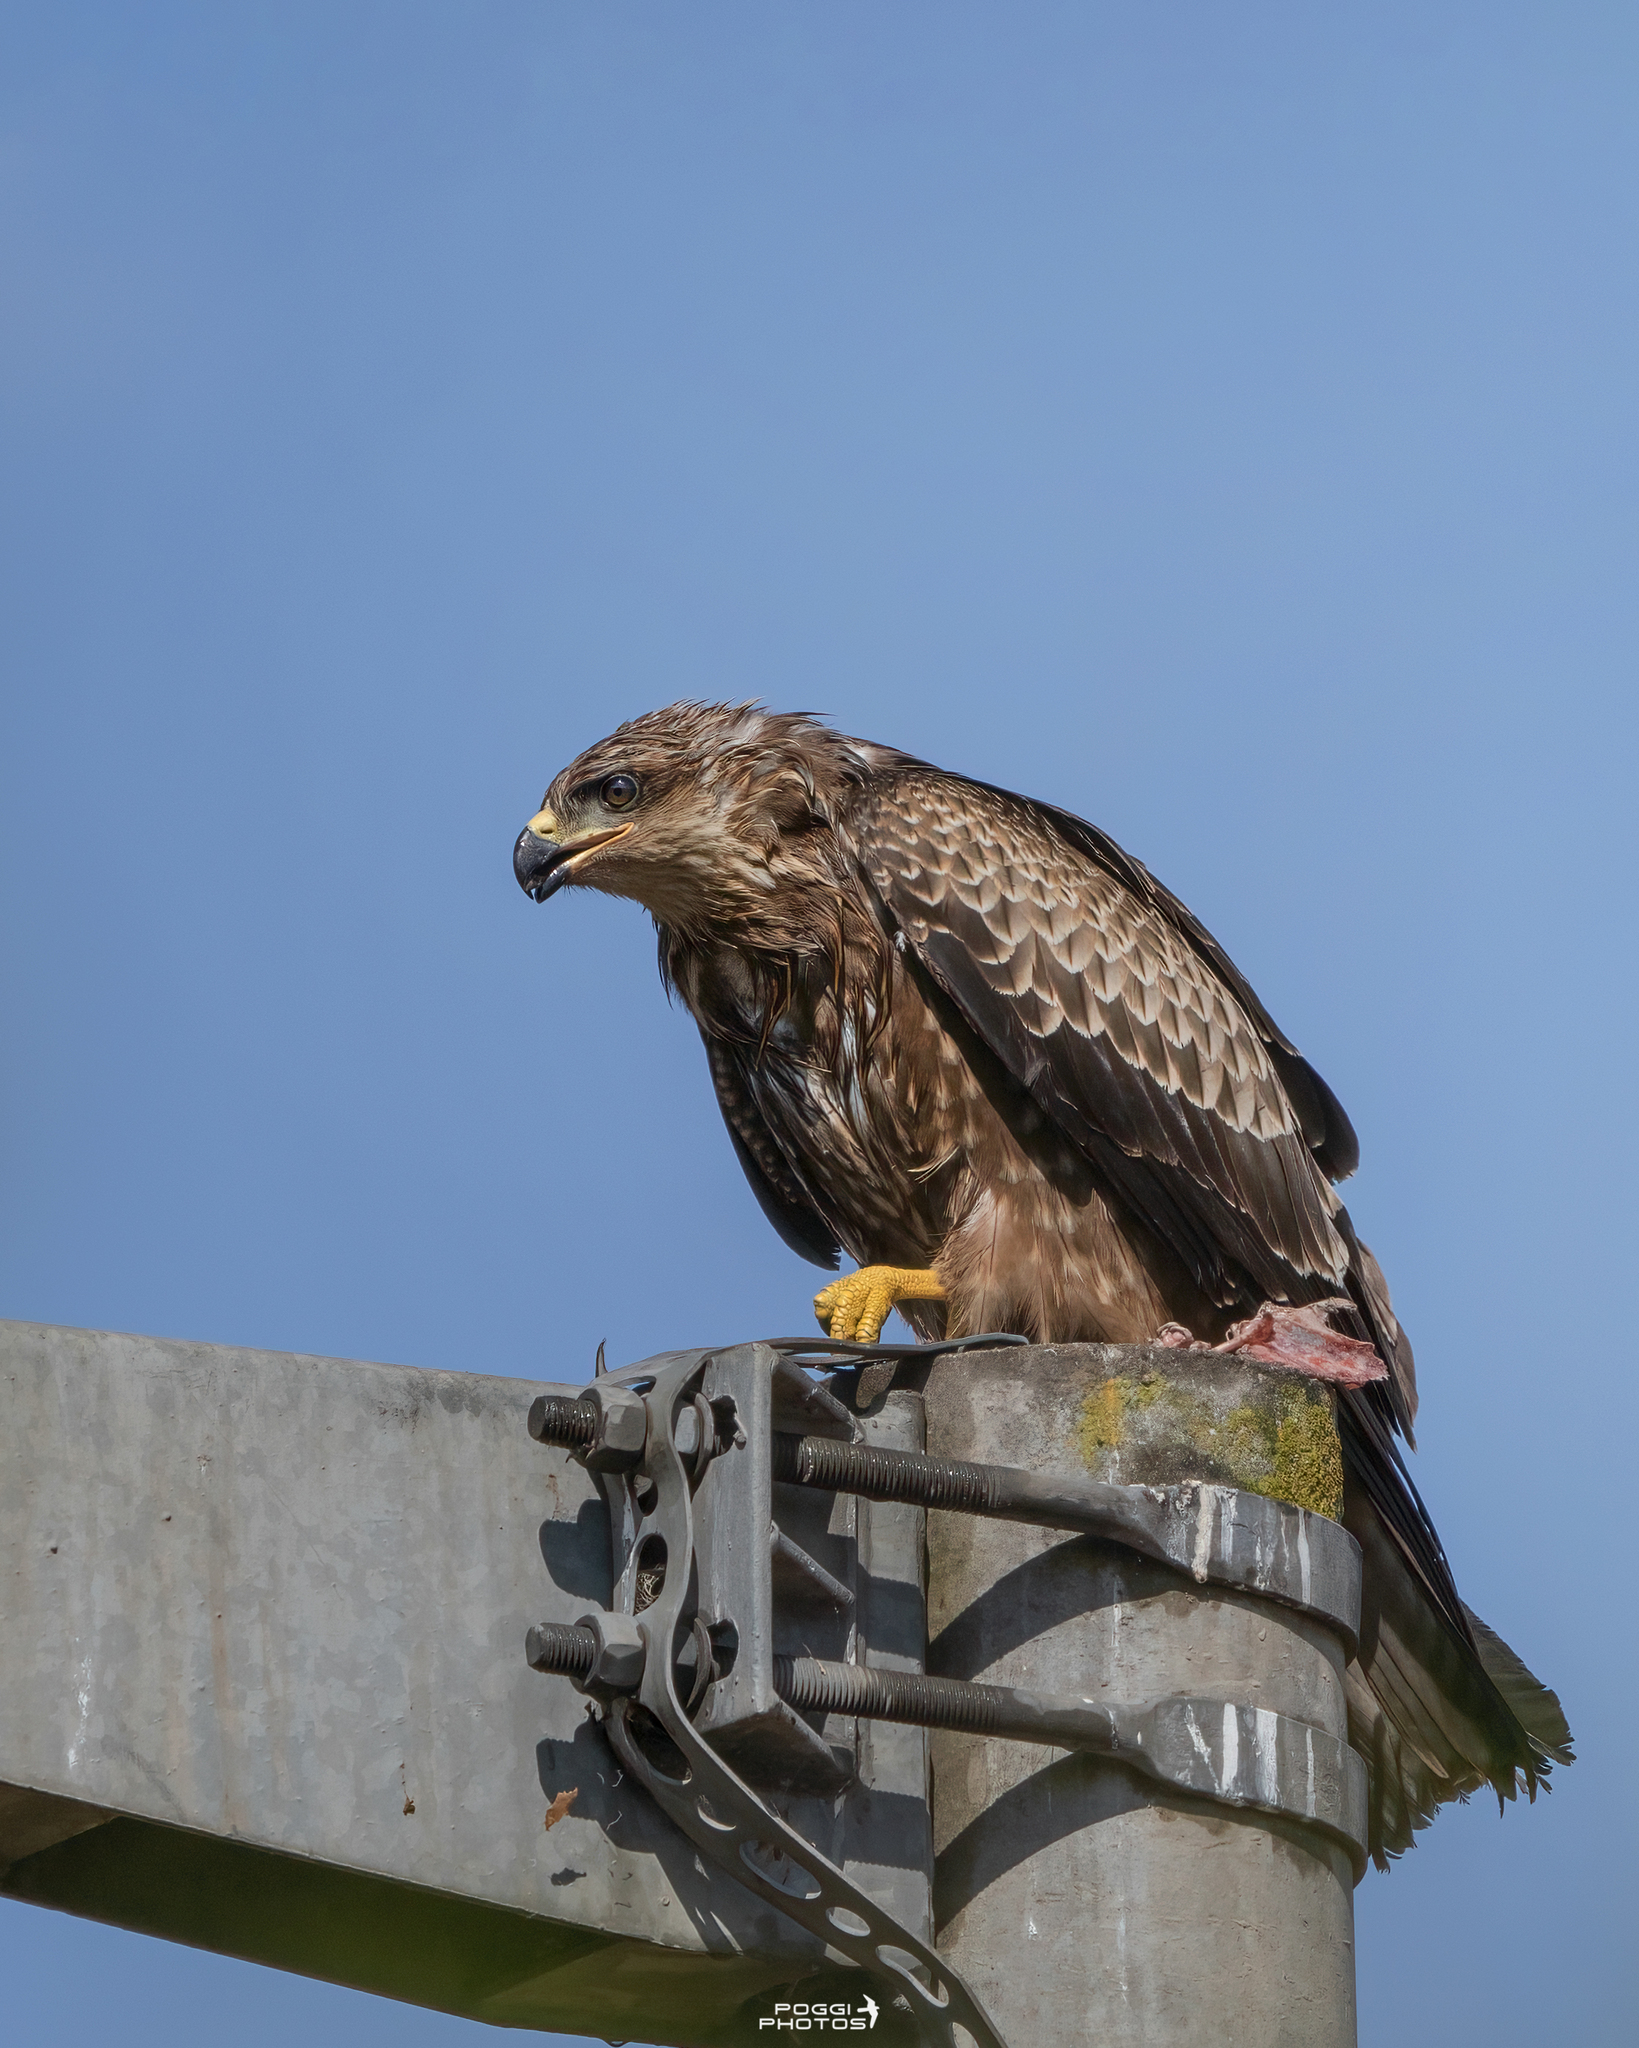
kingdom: Animalia
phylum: Chordata
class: Aves
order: Accipitriformes
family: Accipitridae
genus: Milvus
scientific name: Milvus migrans
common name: Black kite
